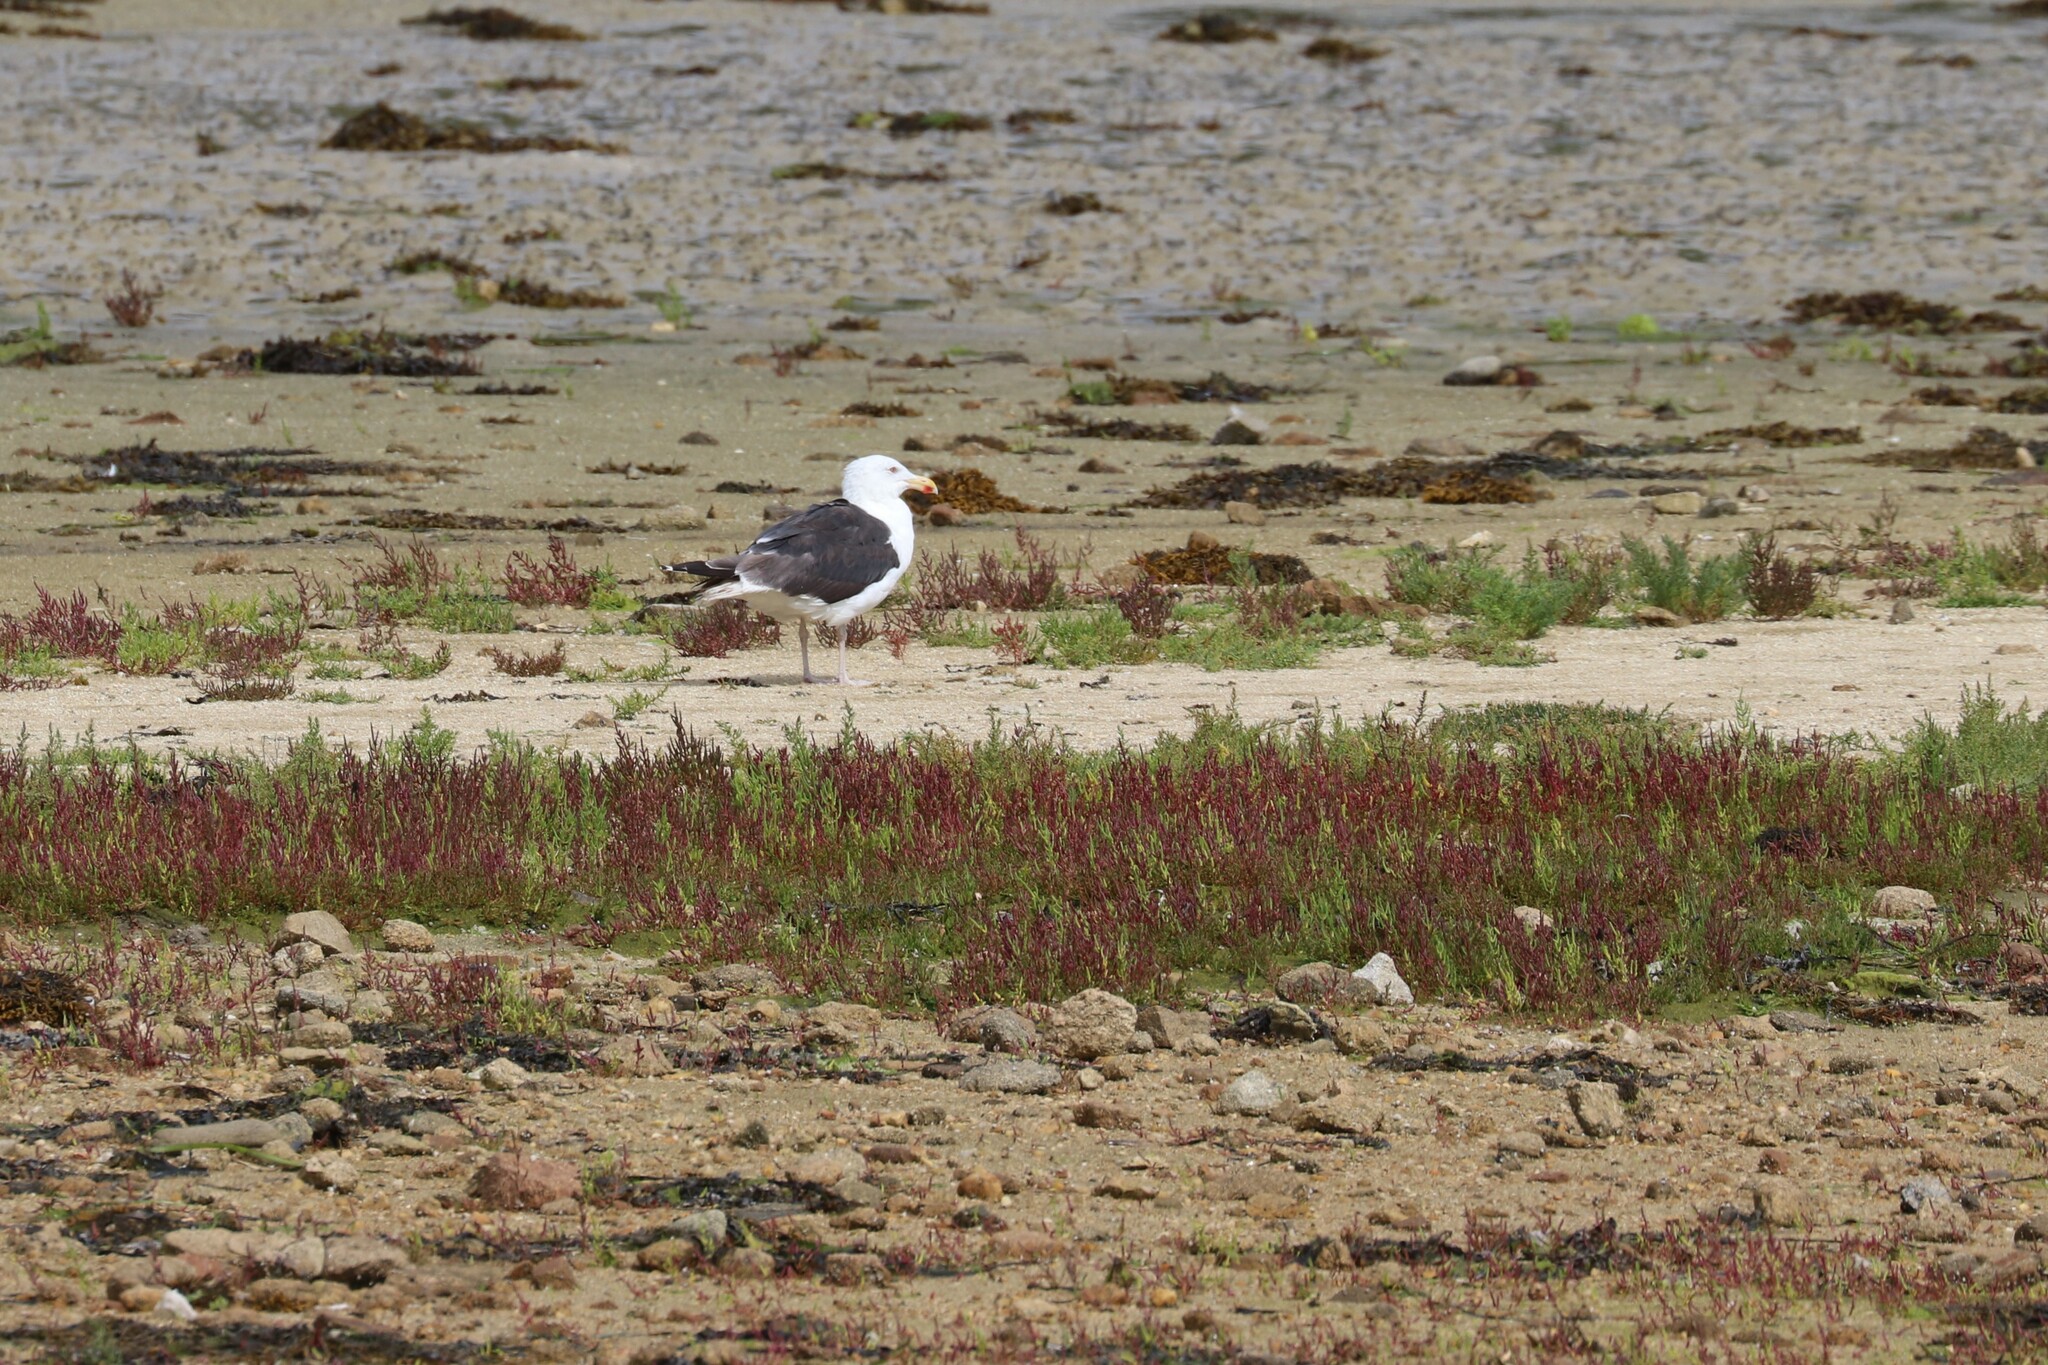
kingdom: Animalia
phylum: Chordata
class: Aves
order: Charadriiformes
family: Laridae
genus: Larus
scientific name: Larus marinus
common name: Great black-backed gull
